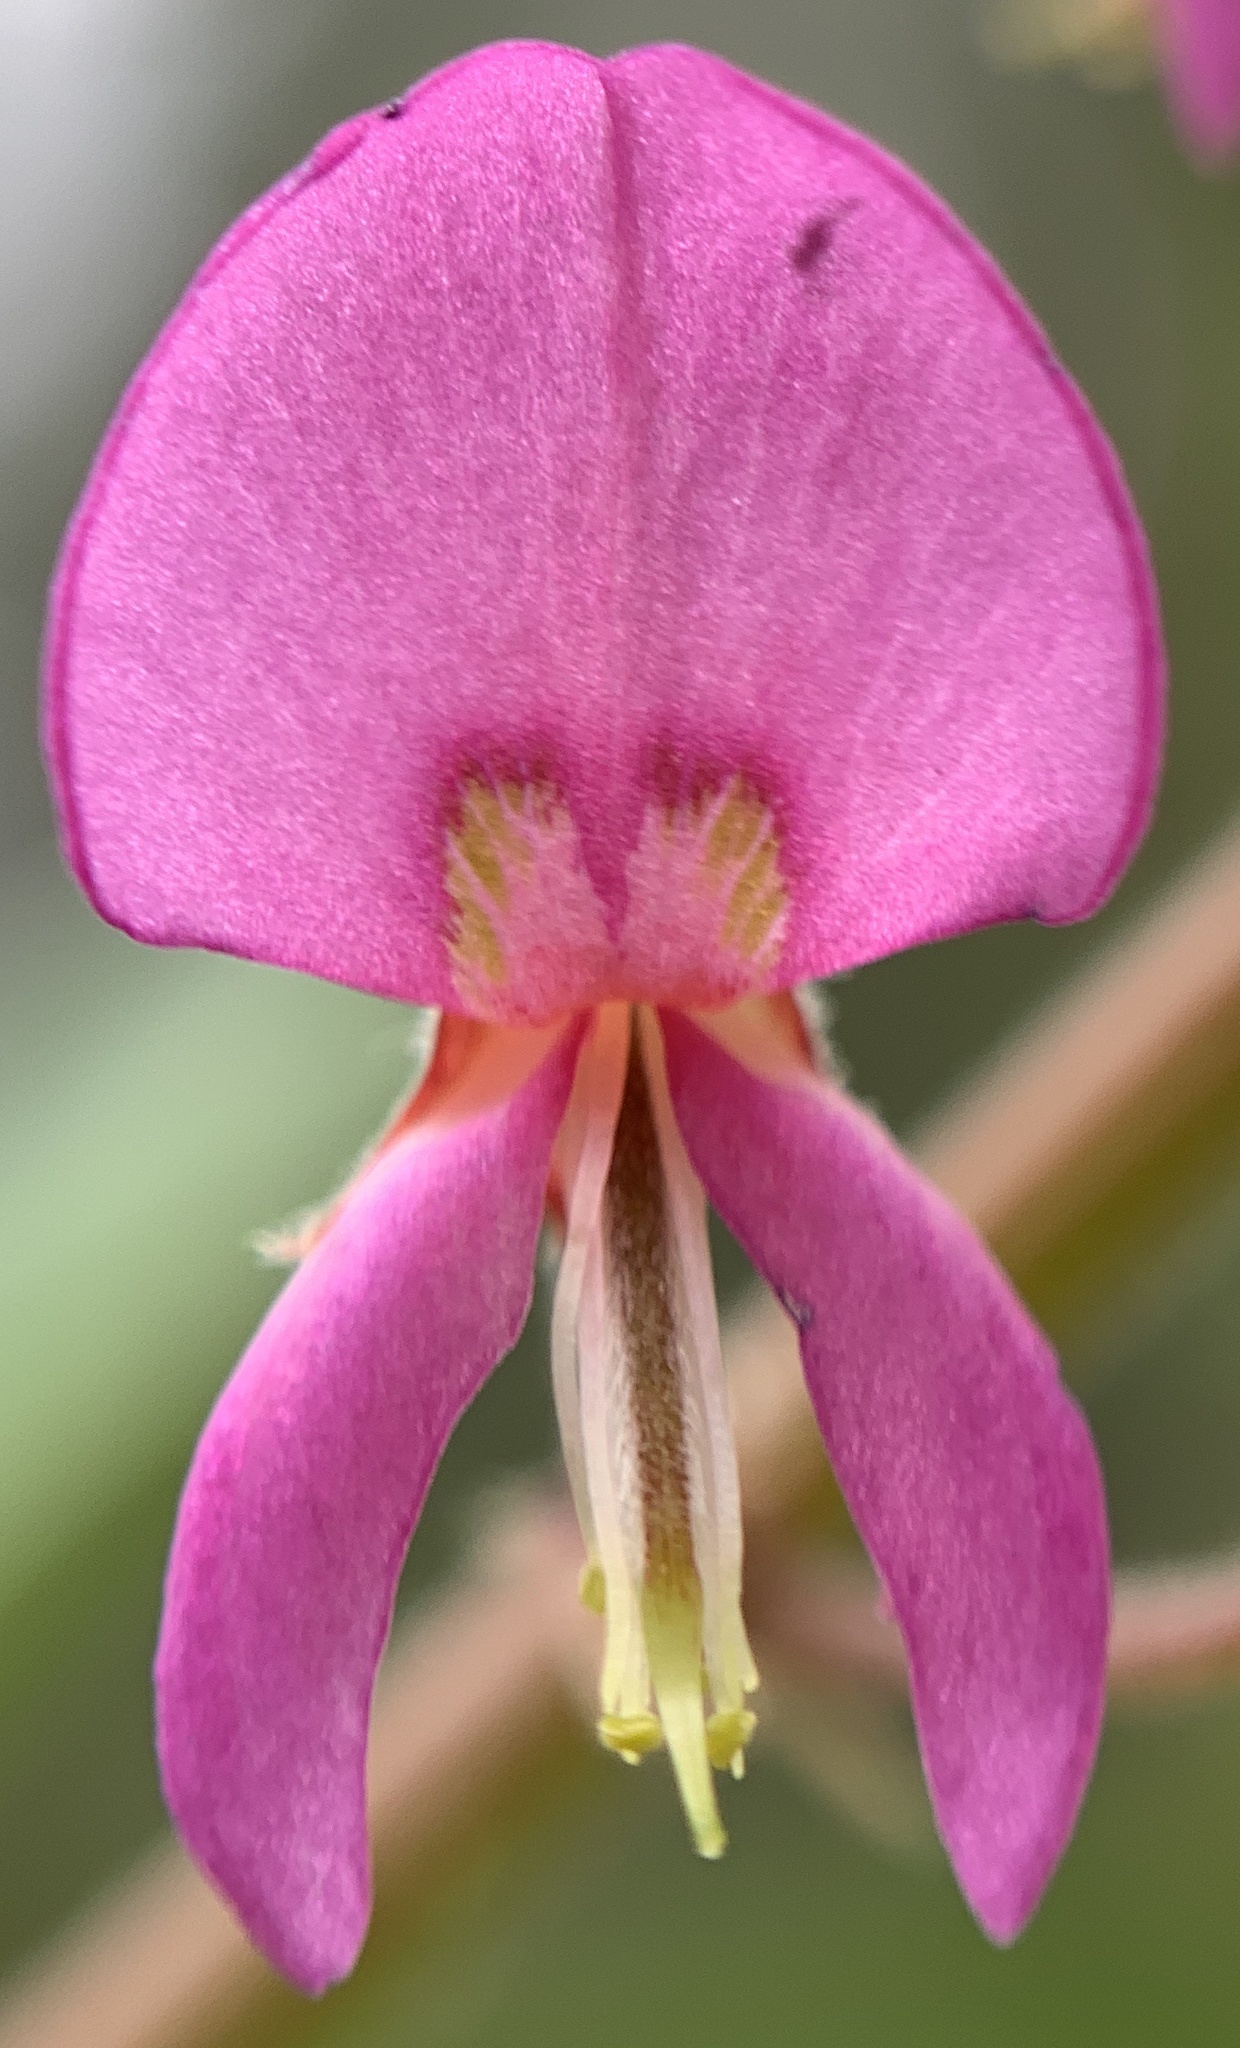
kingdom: Plantae
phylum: Tracheophyta
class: Magnoliopsida
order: Fabales
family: Fabaceae
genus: Desmodium
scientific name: Desmodium incanum
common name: Tickclover
